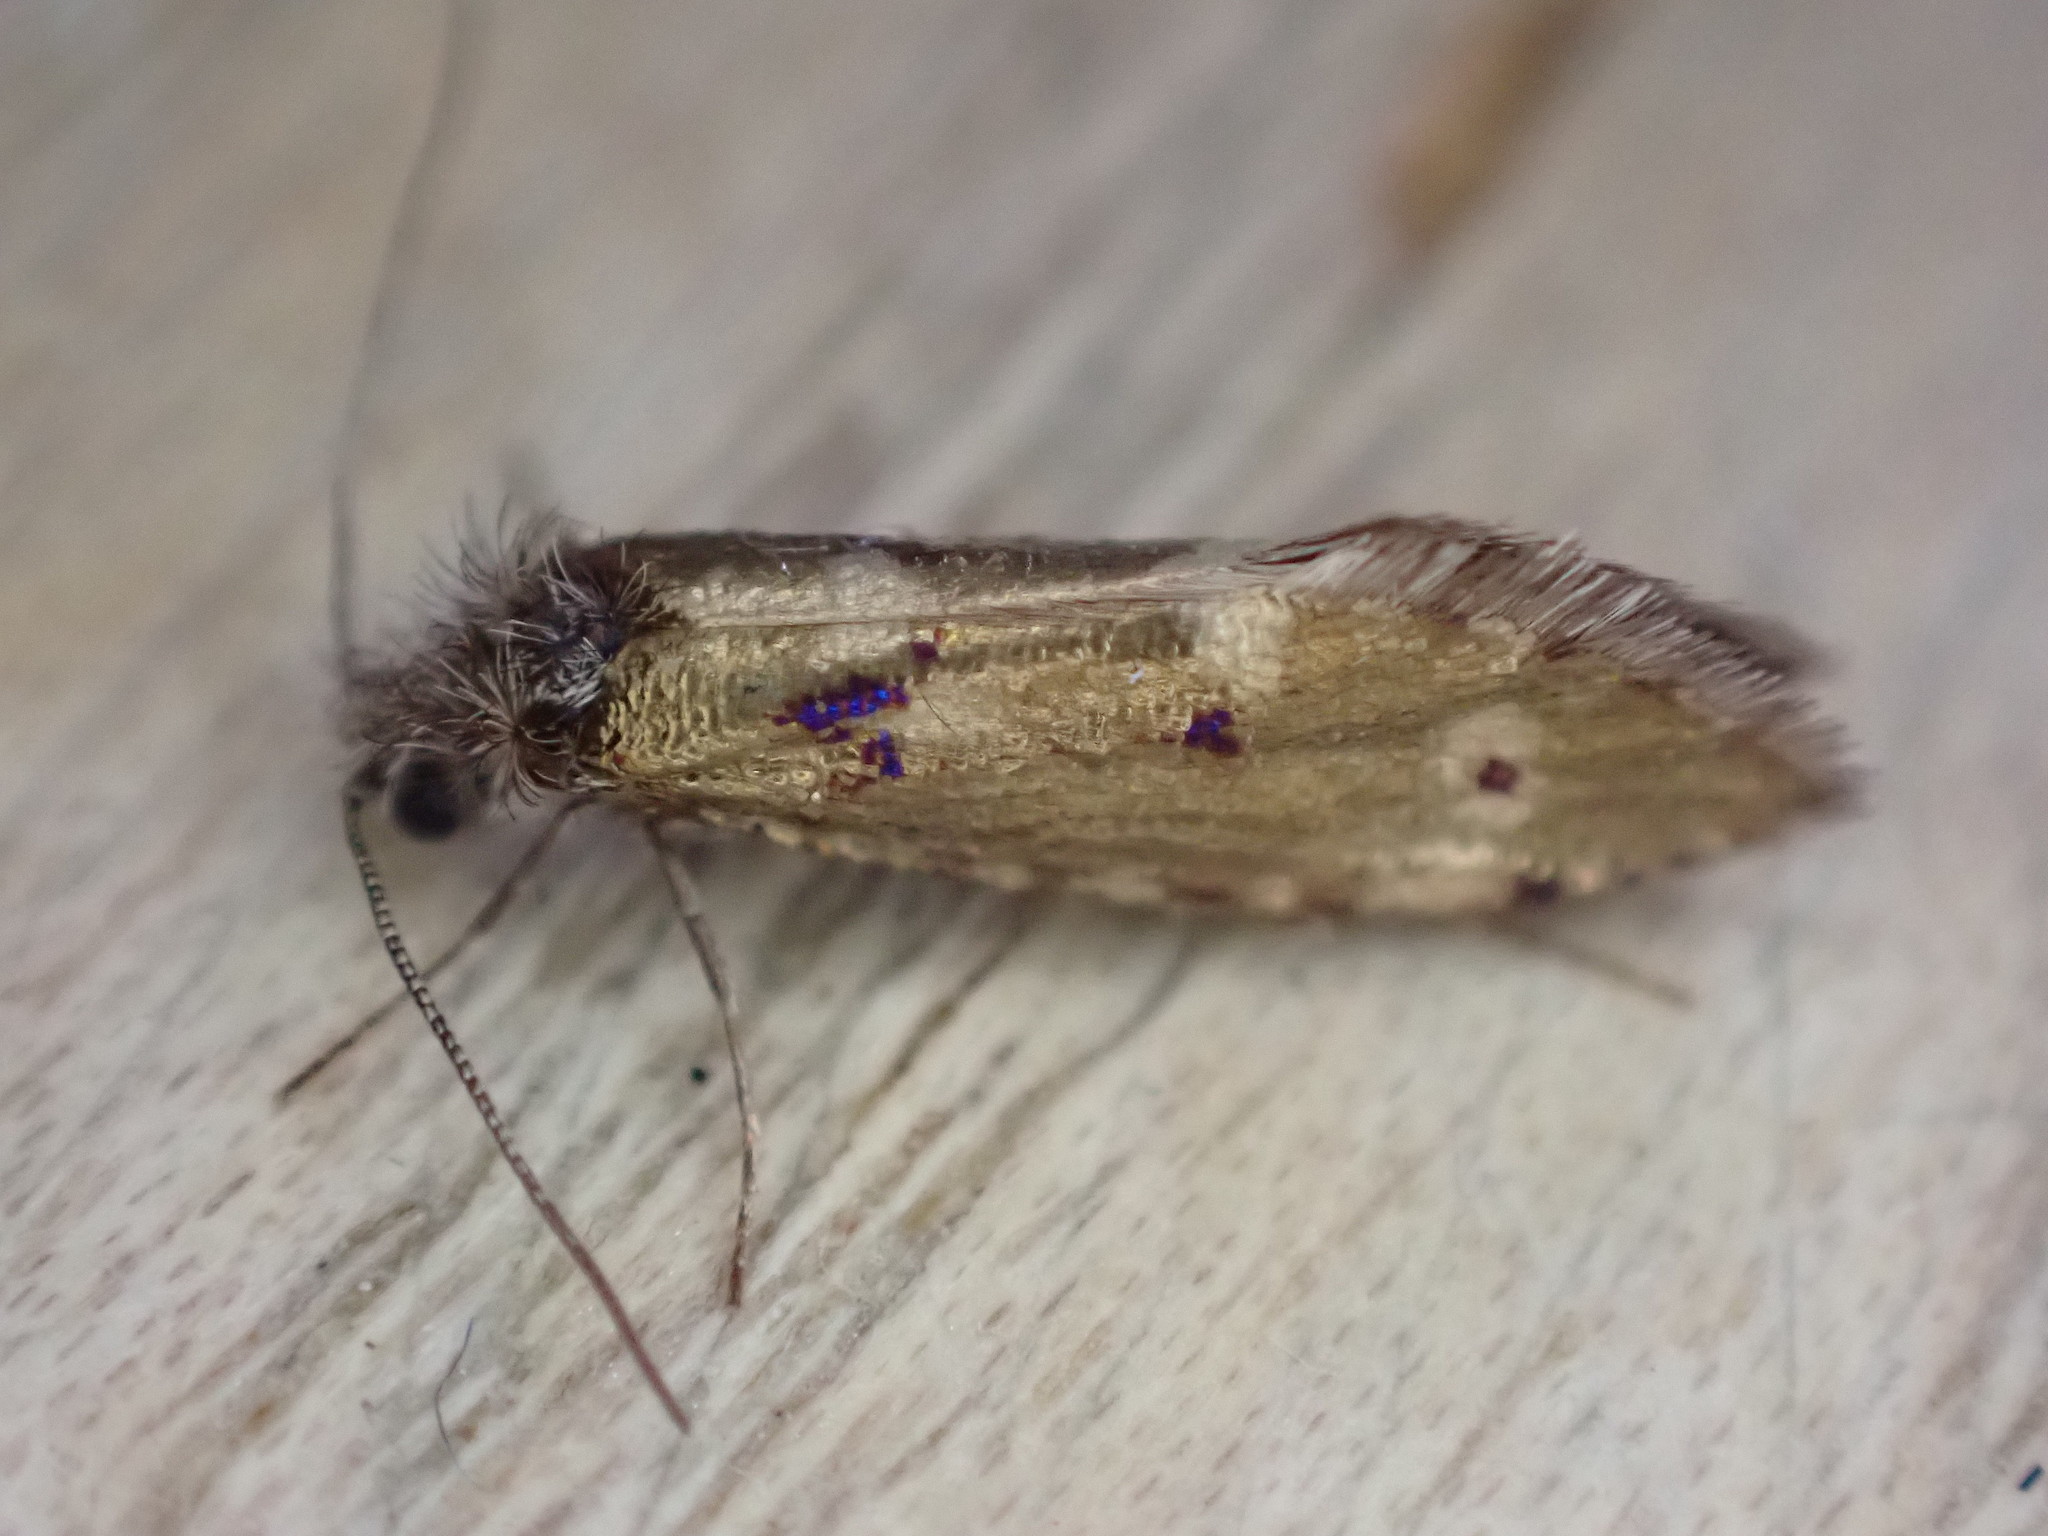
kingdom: Animalia
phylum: Arthropoda
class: Insecta
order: Lepidoptera
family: Eriocraniidae
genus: Dyseriocrania
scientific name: Dyseriocrania subpurpurella
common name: Common oak purple
